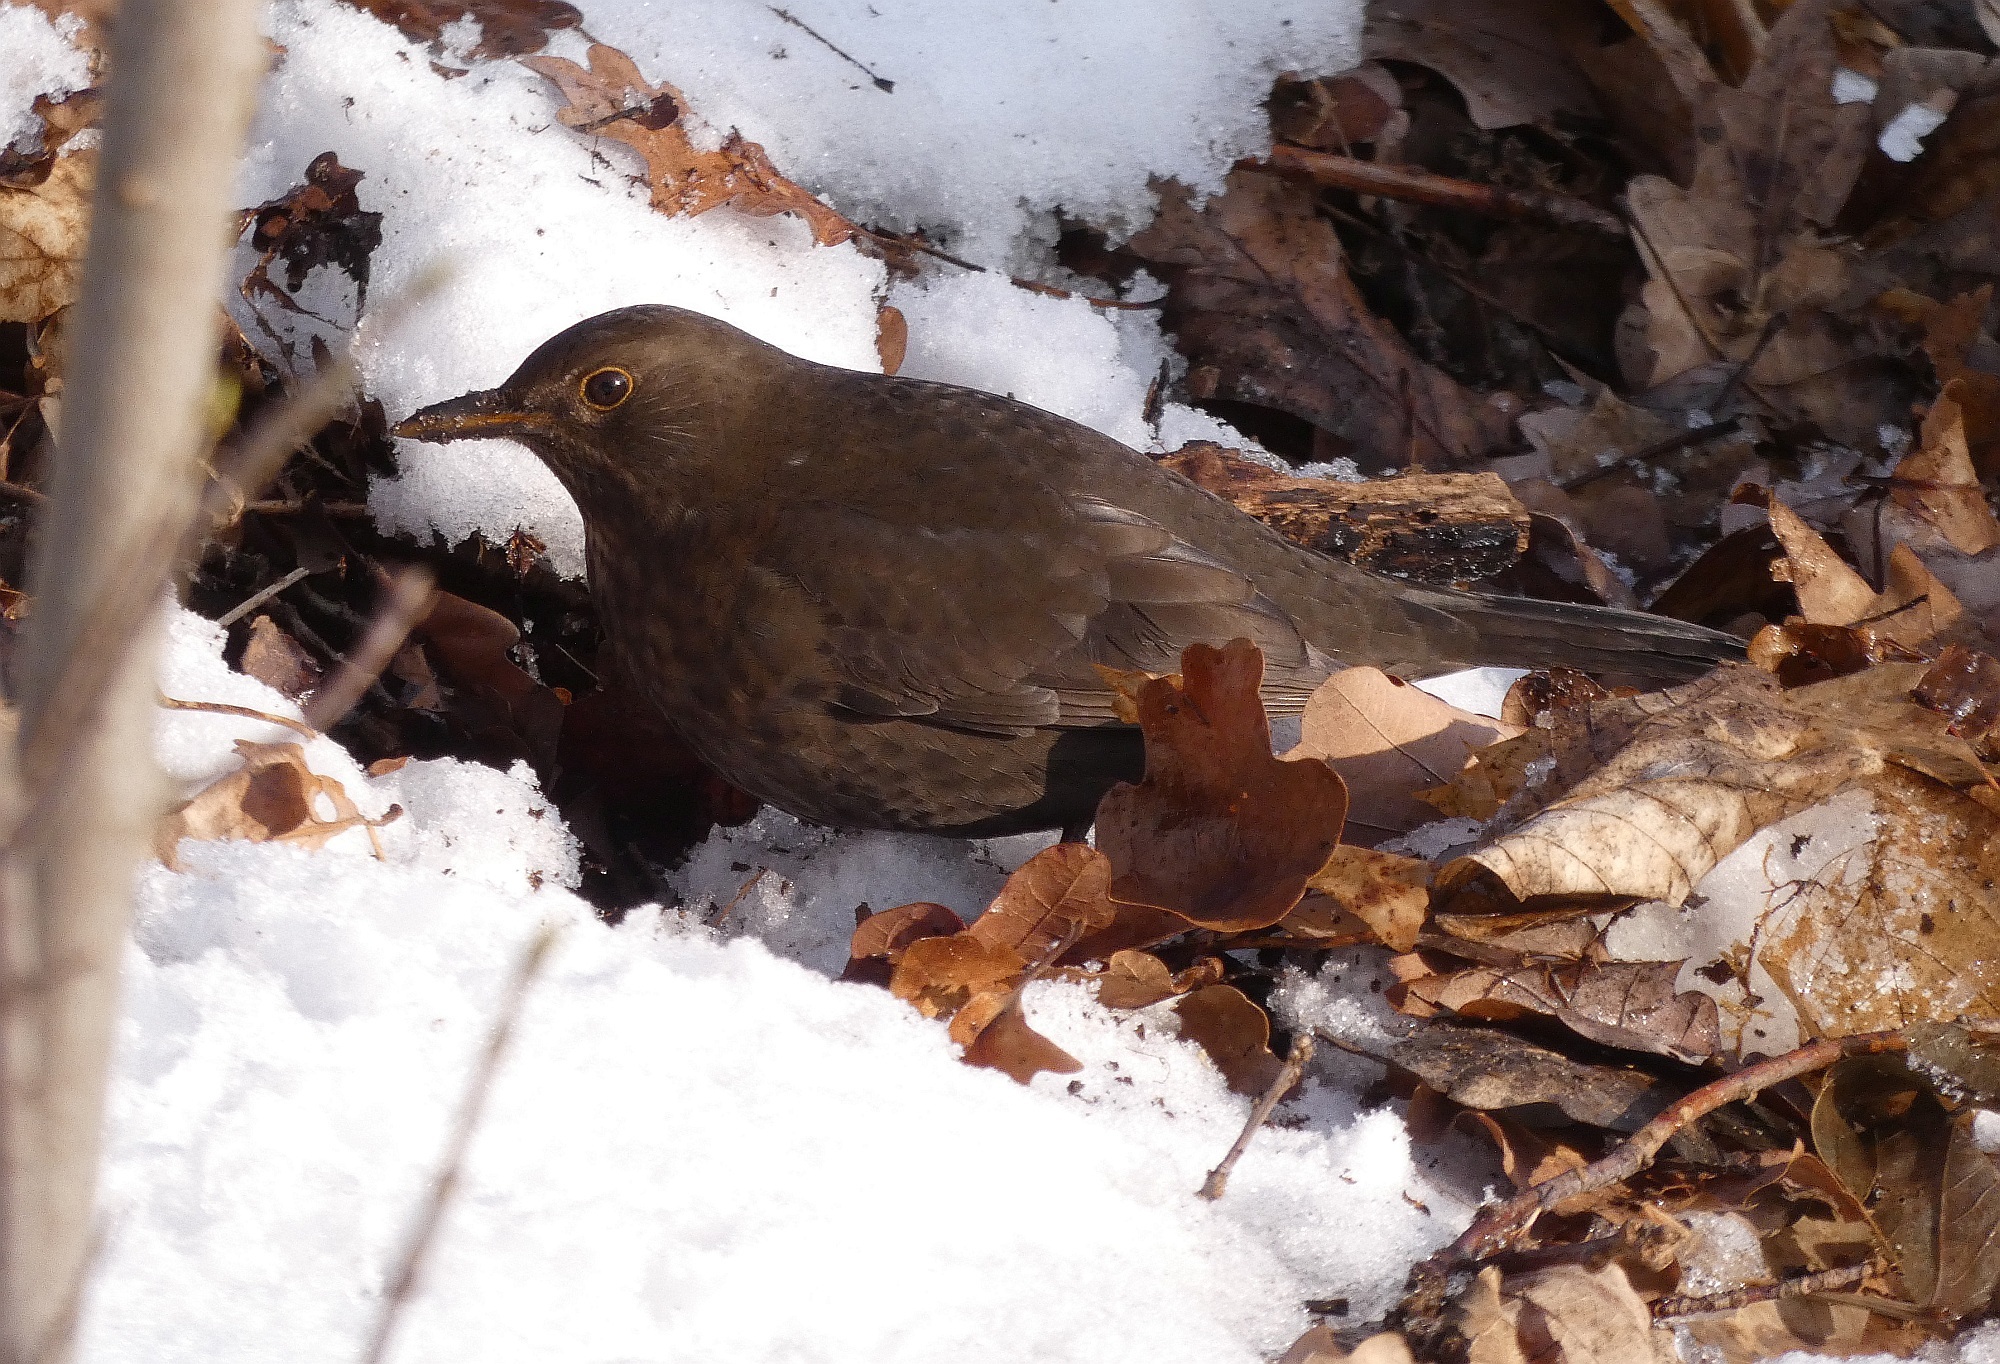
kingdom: Animalia
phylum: Chordata
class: Aves
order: Passeriformes
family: Turdidae
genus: Turdus
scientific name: Turdus merula
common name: Common blackbird
